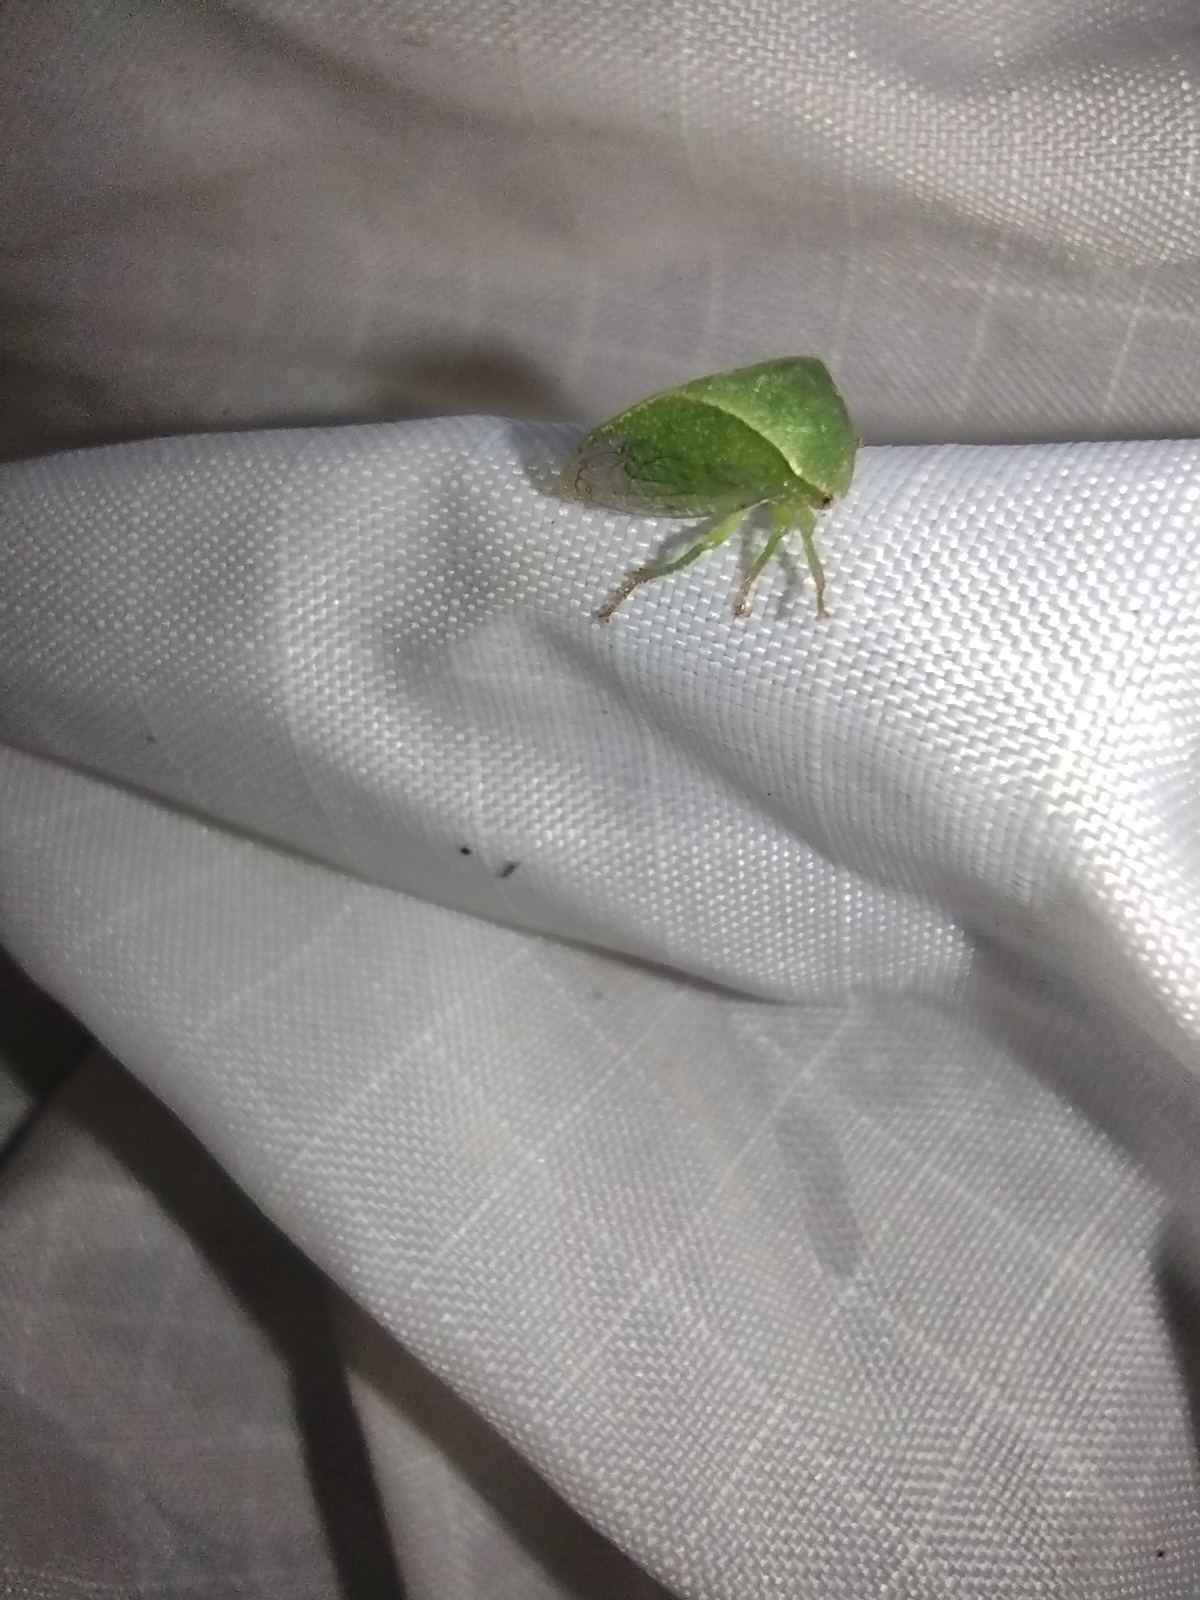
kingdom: Animalia
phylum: Arthropoda
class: Insecta
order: Hemiptera
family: Membracidae
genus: Spissistilus
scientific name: Spissistilus festina
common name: Membracid bug
